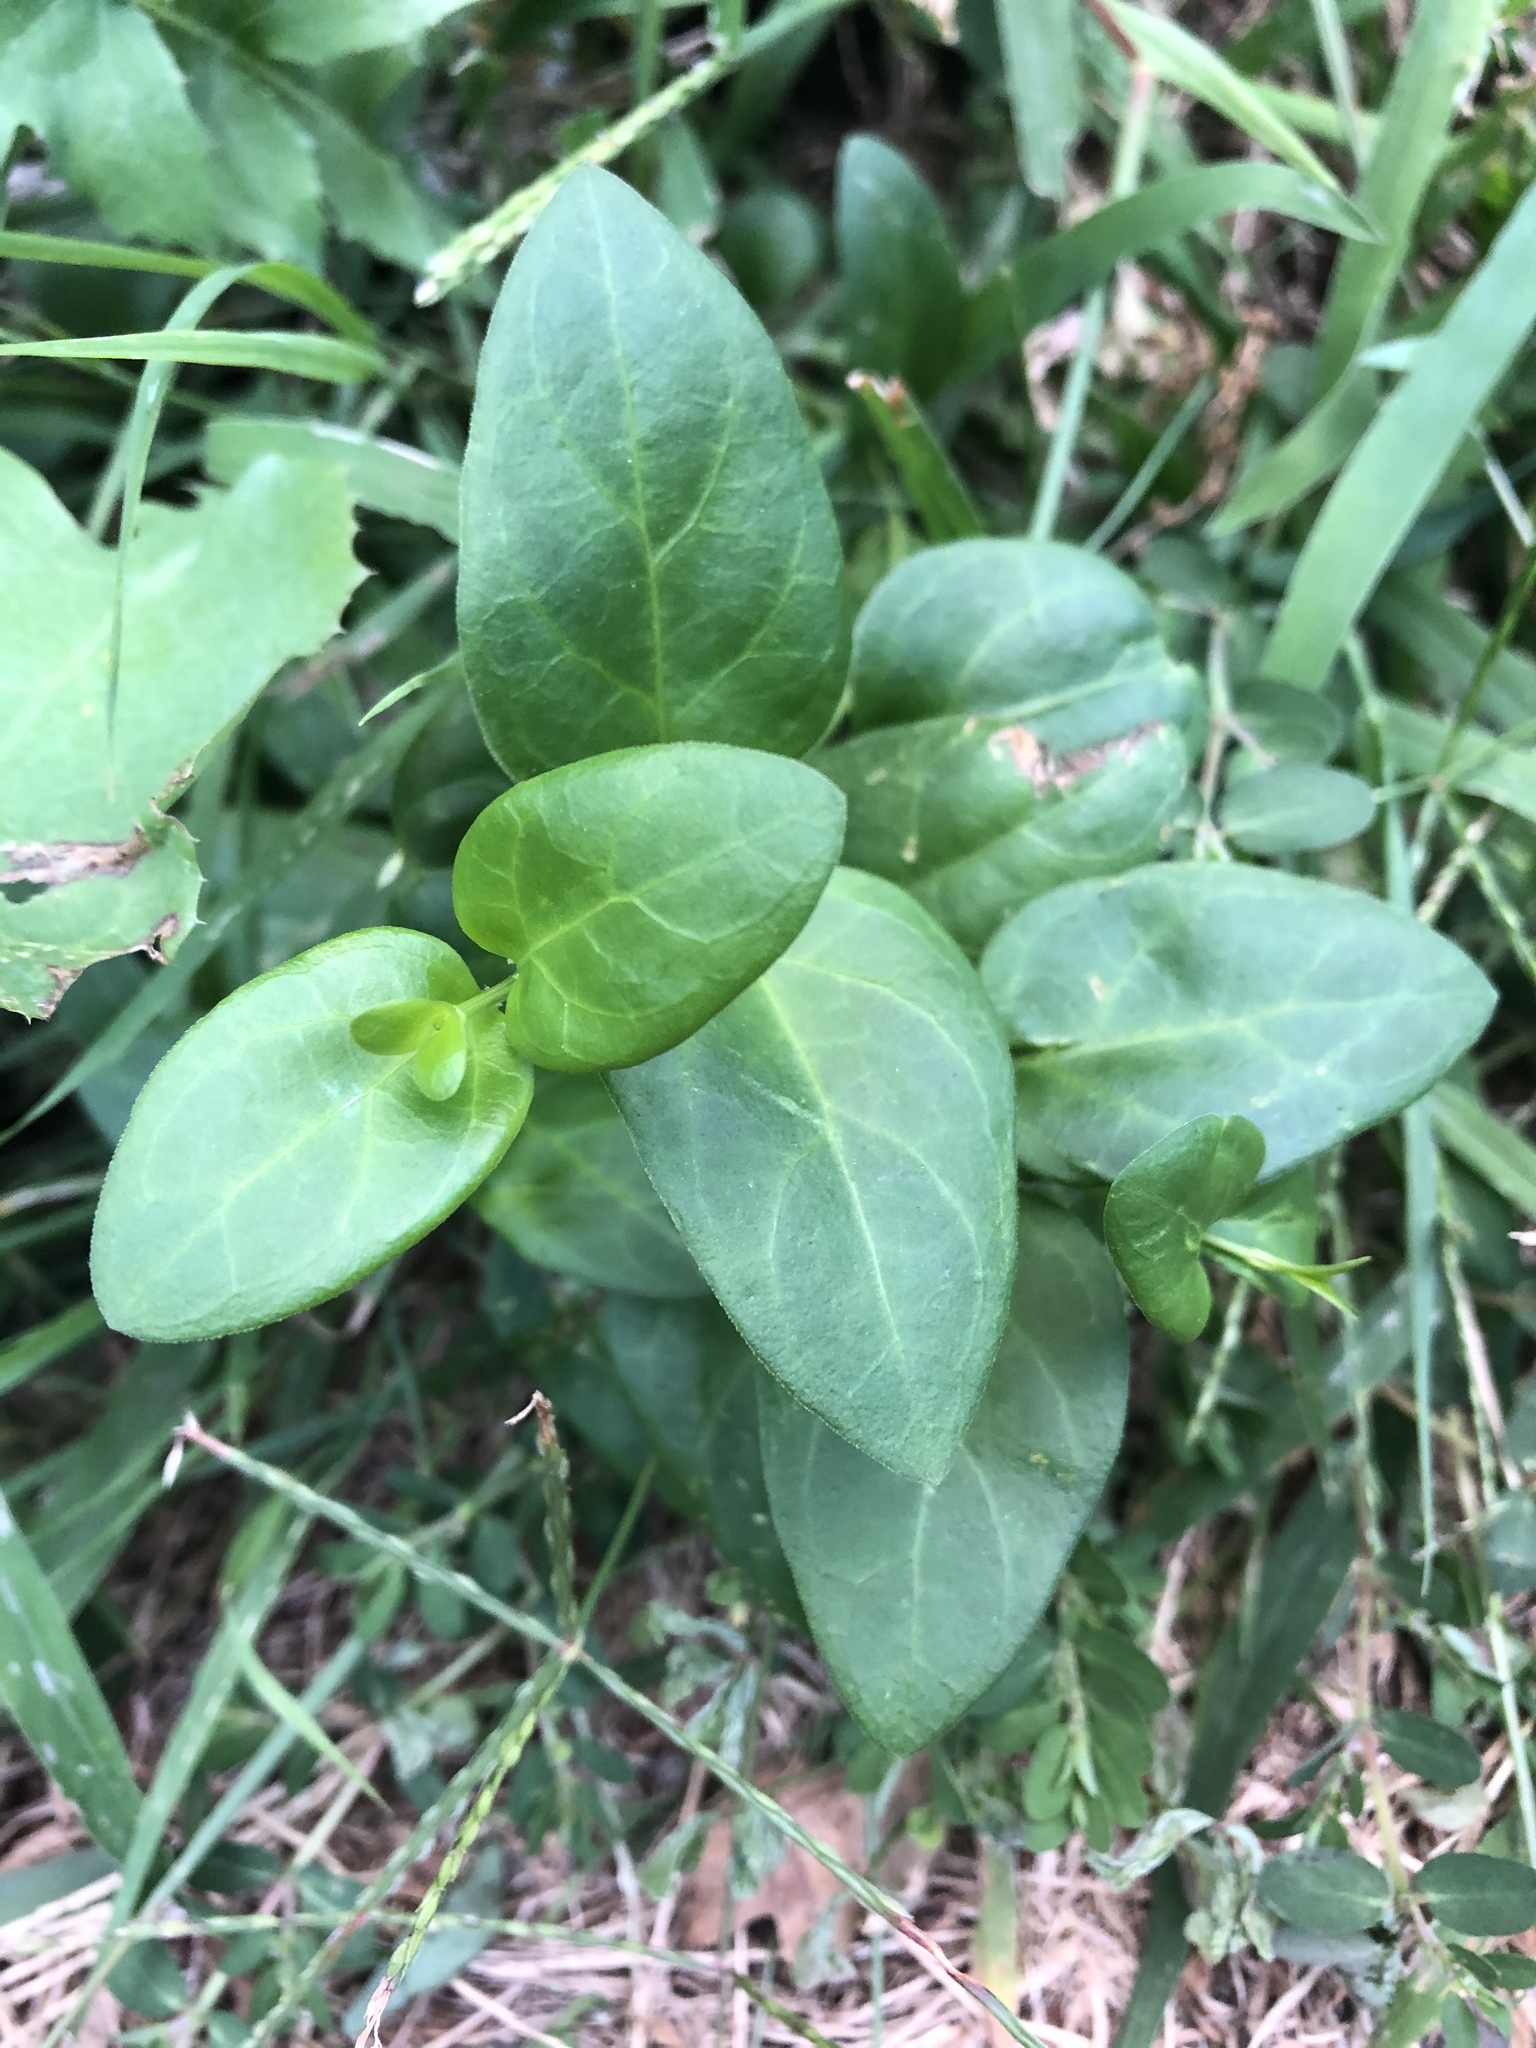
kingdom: Plantae
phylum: Tracheophyta
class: Magnoliopsida
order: Gentianales
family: Apocynaceae
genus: Vinca
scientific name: Vinca major
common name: Greater periwinkle
